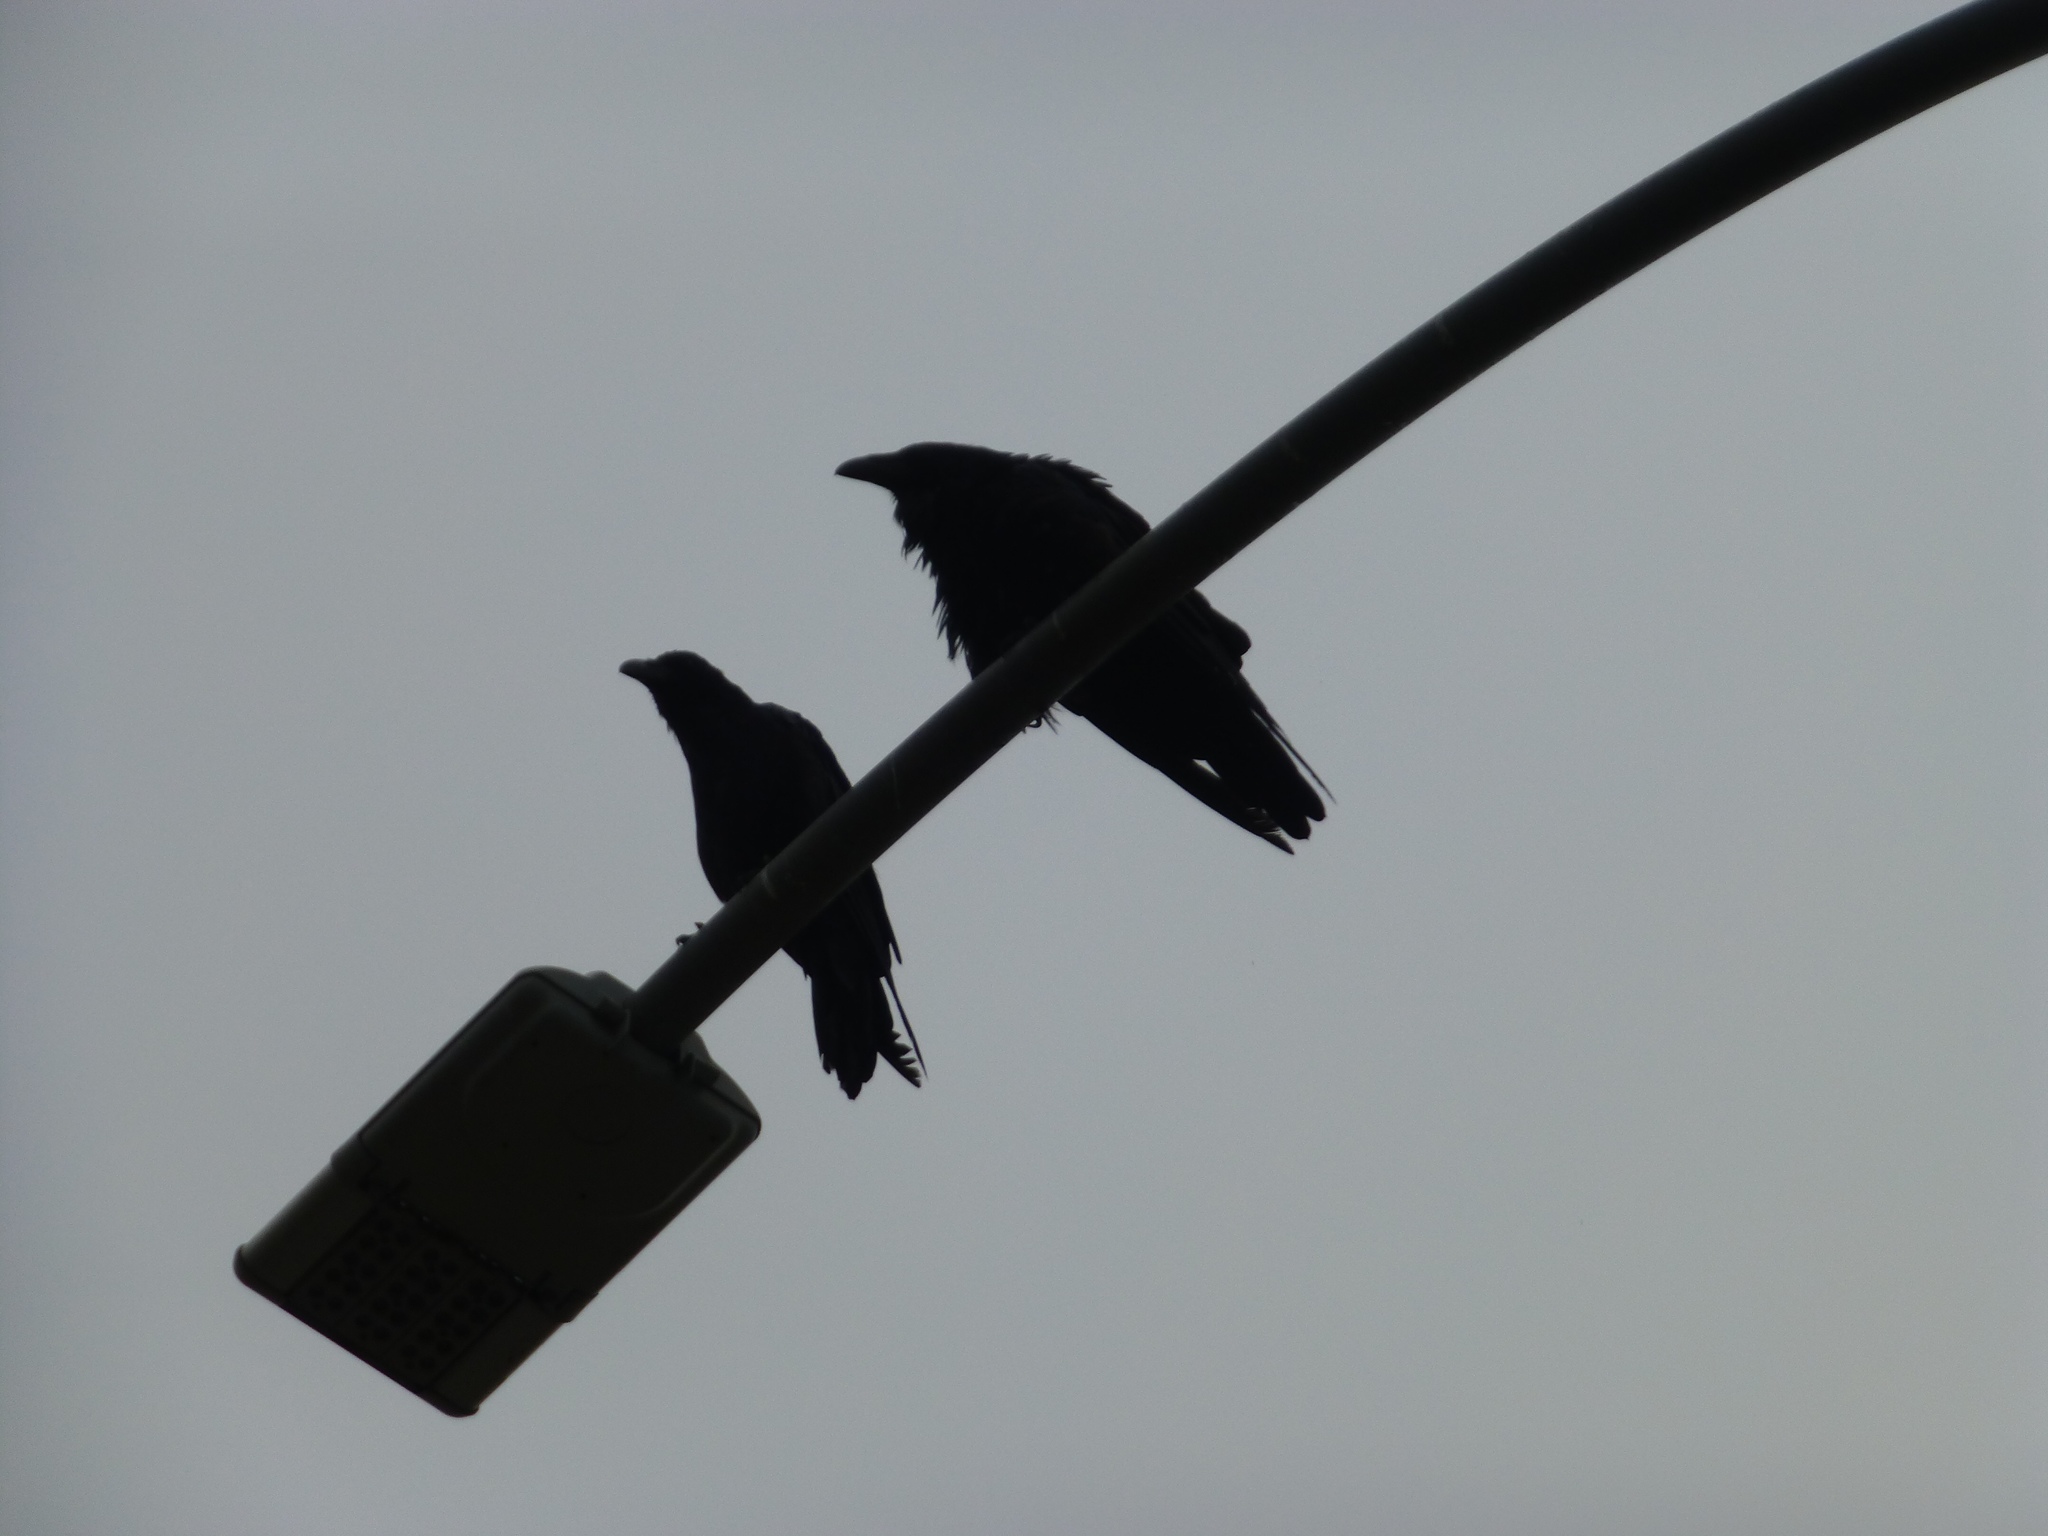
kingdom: Animalia
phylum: Chordata
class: Aves
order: Passeriformes
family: Corvidae
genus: Corvus
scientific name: Corvus corax
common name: Common raven
